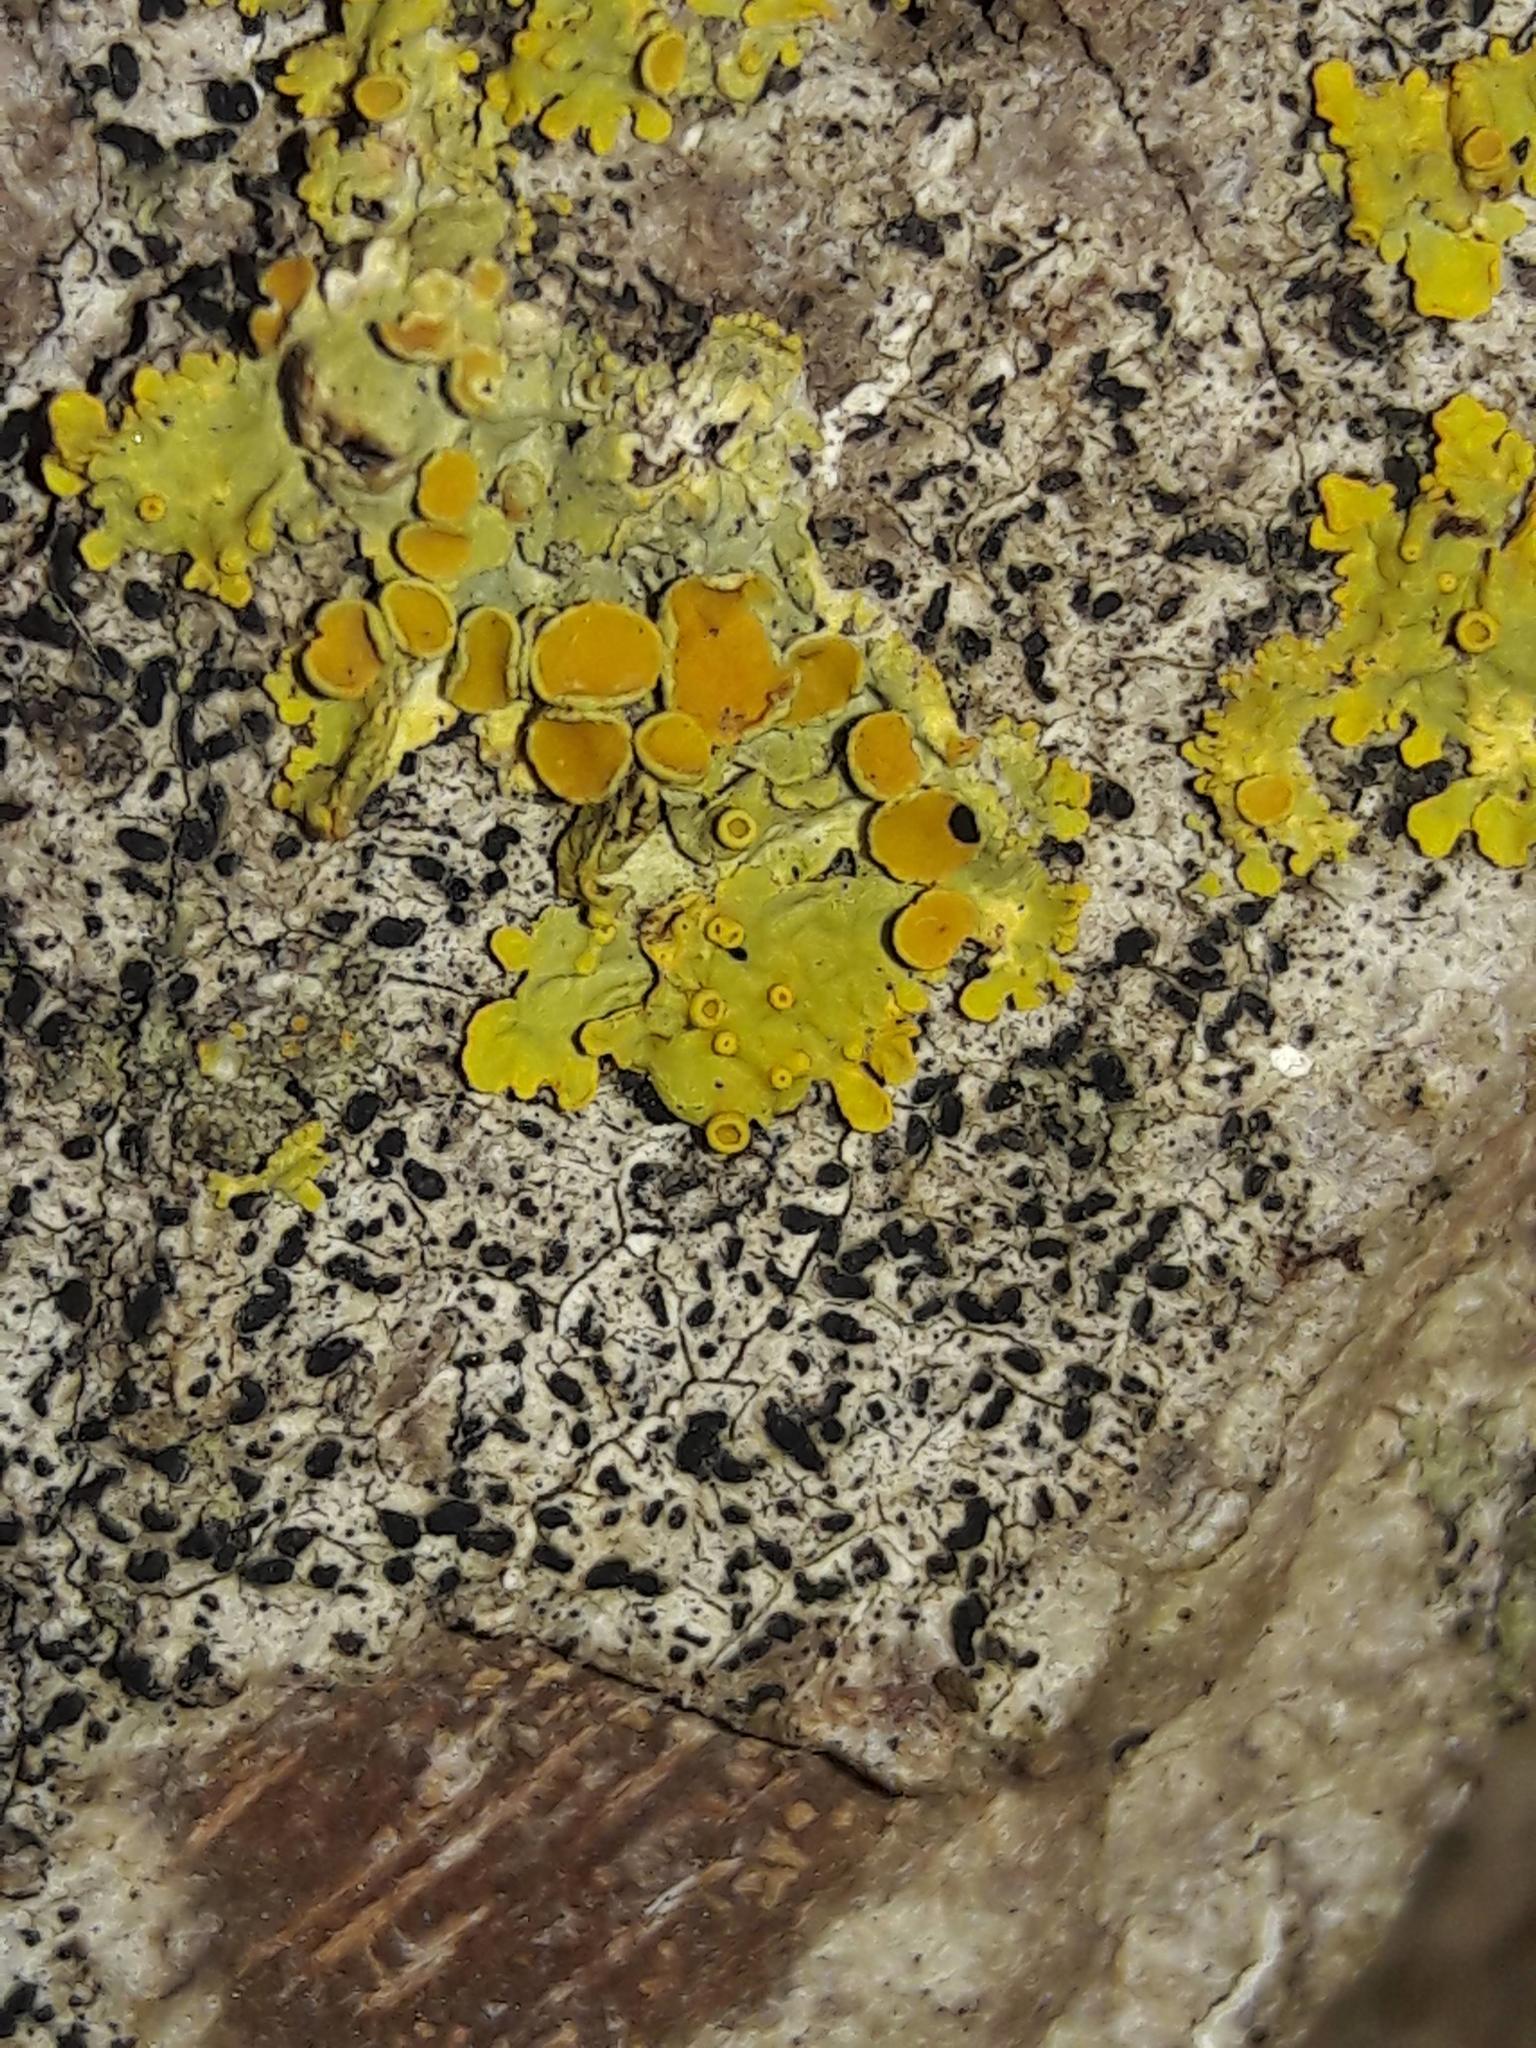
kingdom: Fungi
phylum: Ascomycota
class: Lecanoromycetes
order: Teloschistales
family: Teloschistaceae
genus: Xanthoria
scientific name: Xanthoria parietina
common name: Common orange lichen
